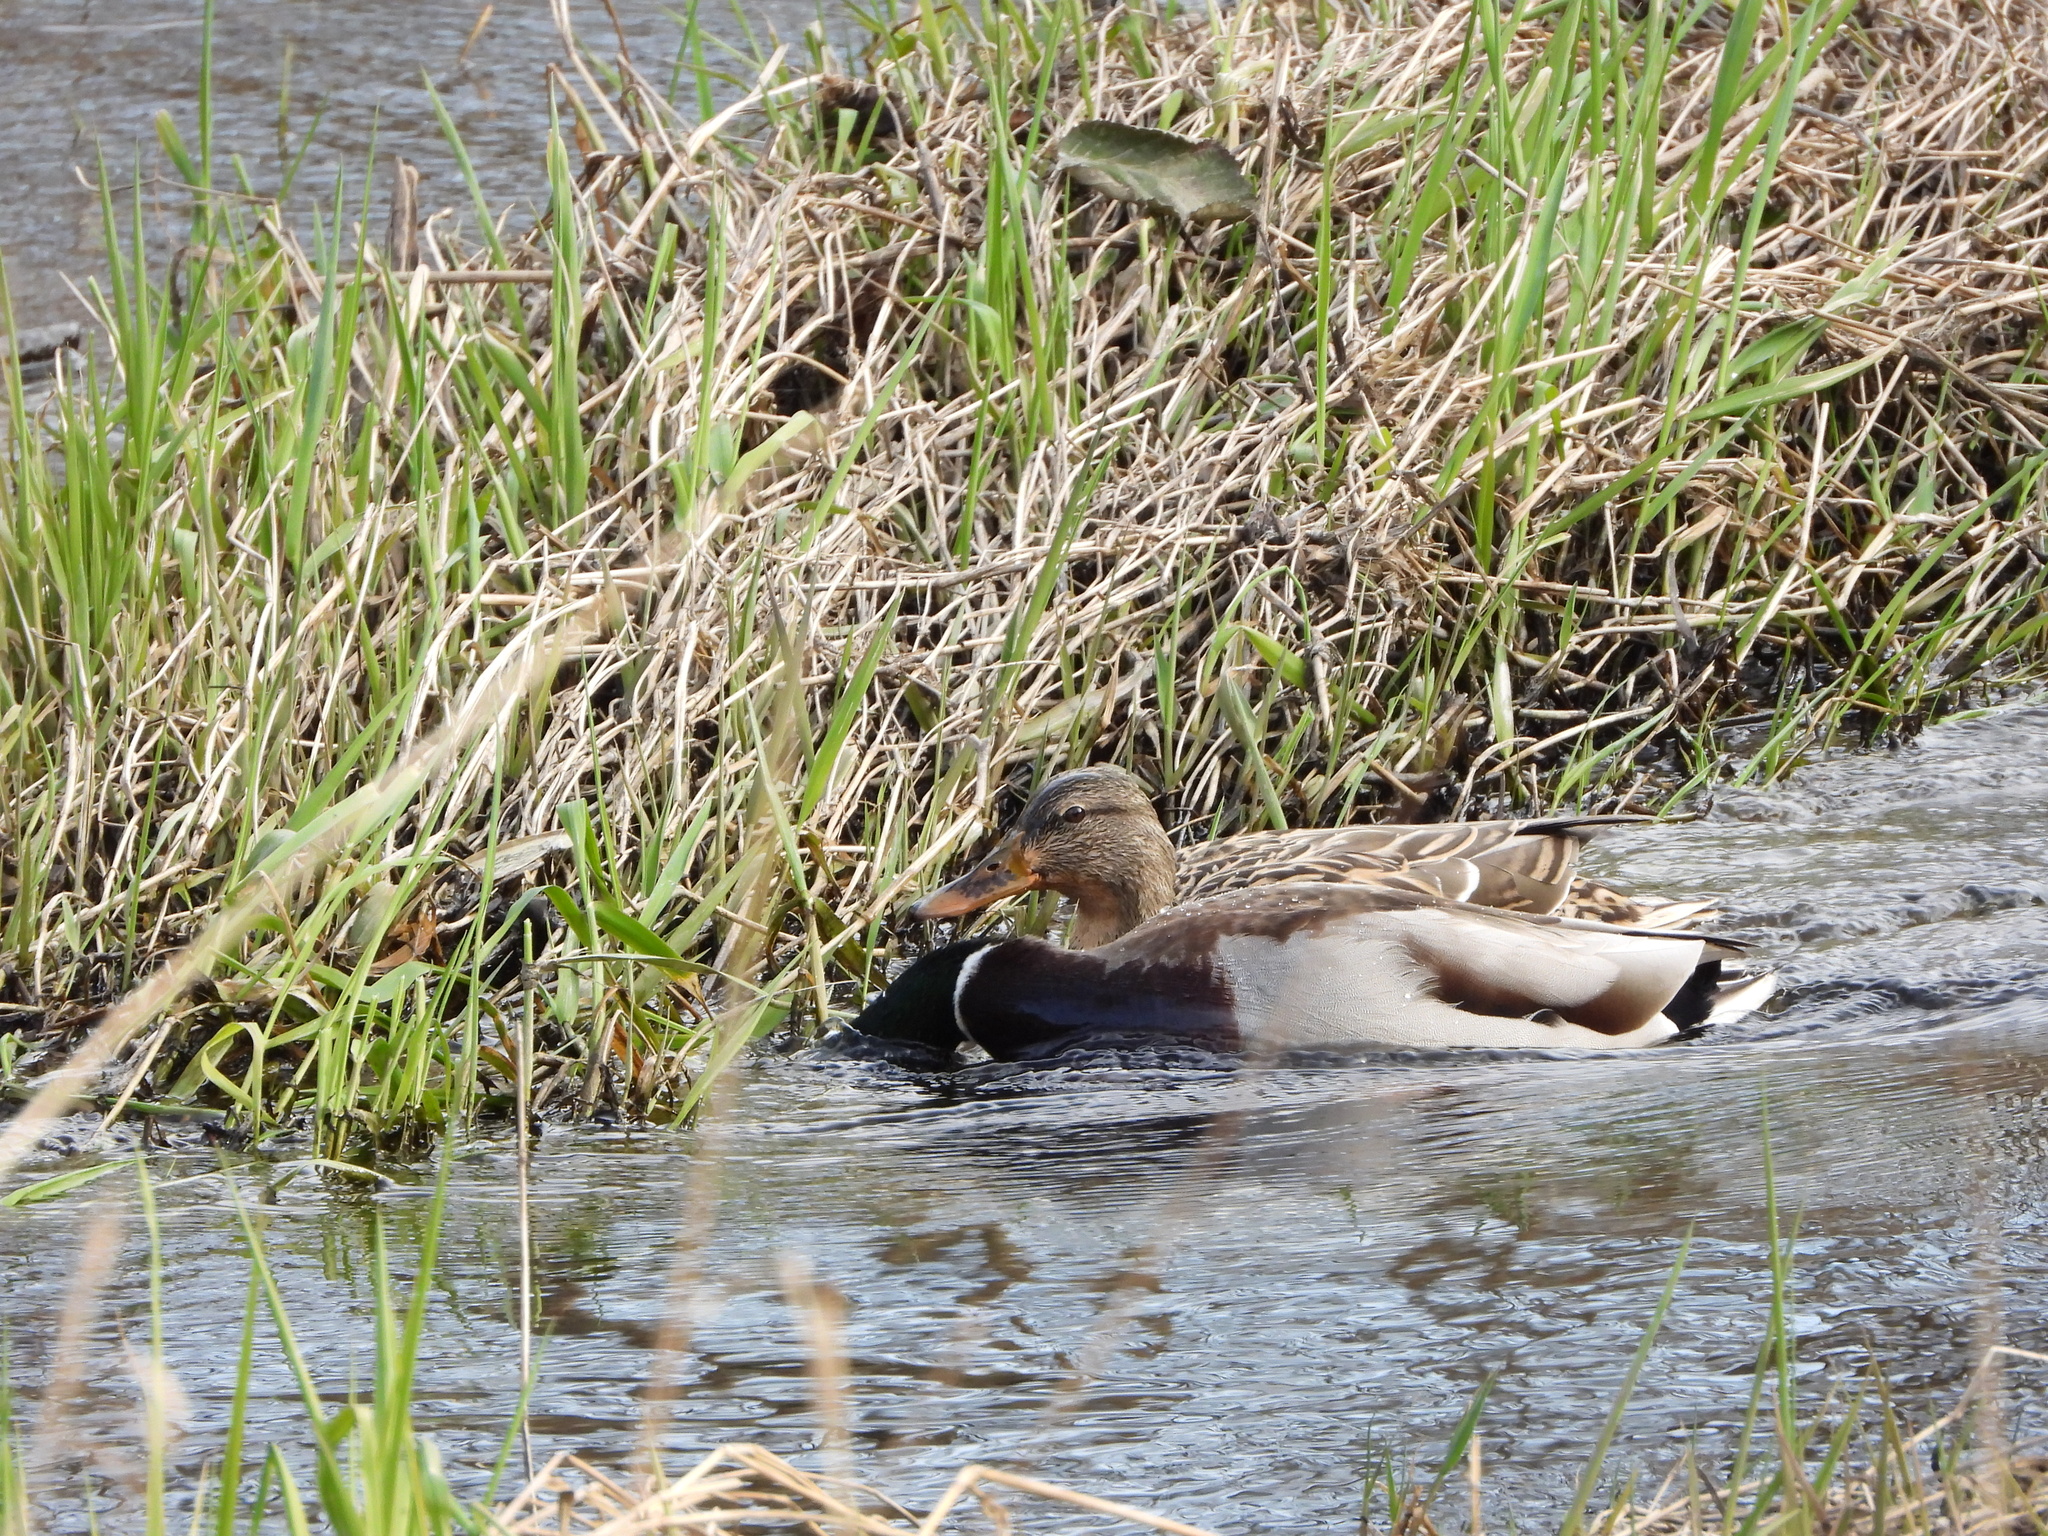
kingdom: Animalia
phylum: Chordata
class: Aves
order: Anseriformes
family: Anatidae
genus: Anas
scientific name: Anas platyrhynchos
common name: Mallard
